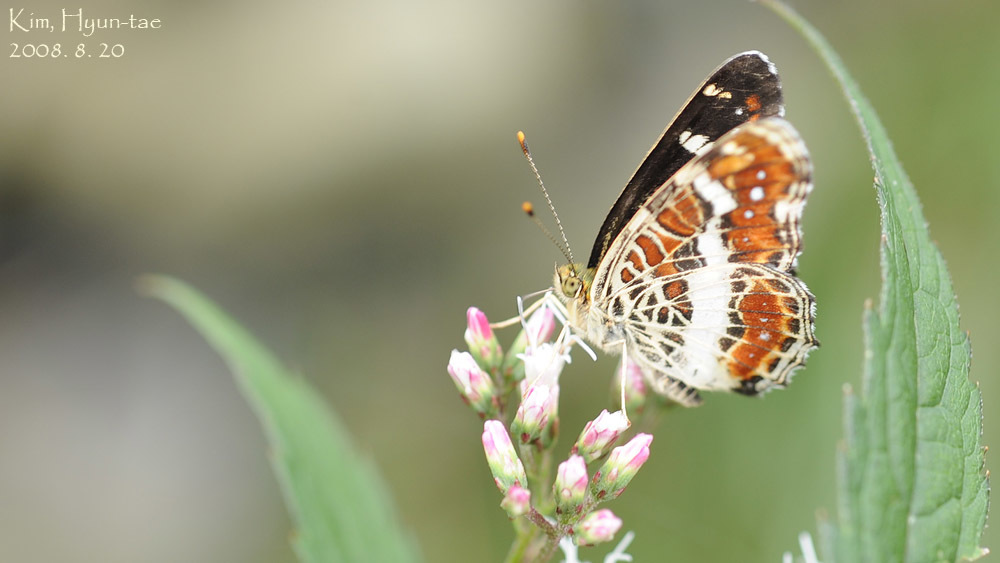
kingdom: Animalia
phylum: Arthropoda
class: Insecta
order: Lepidoptera
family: Nymphalidae
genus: Araschnia
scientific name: Araschnia burejana
